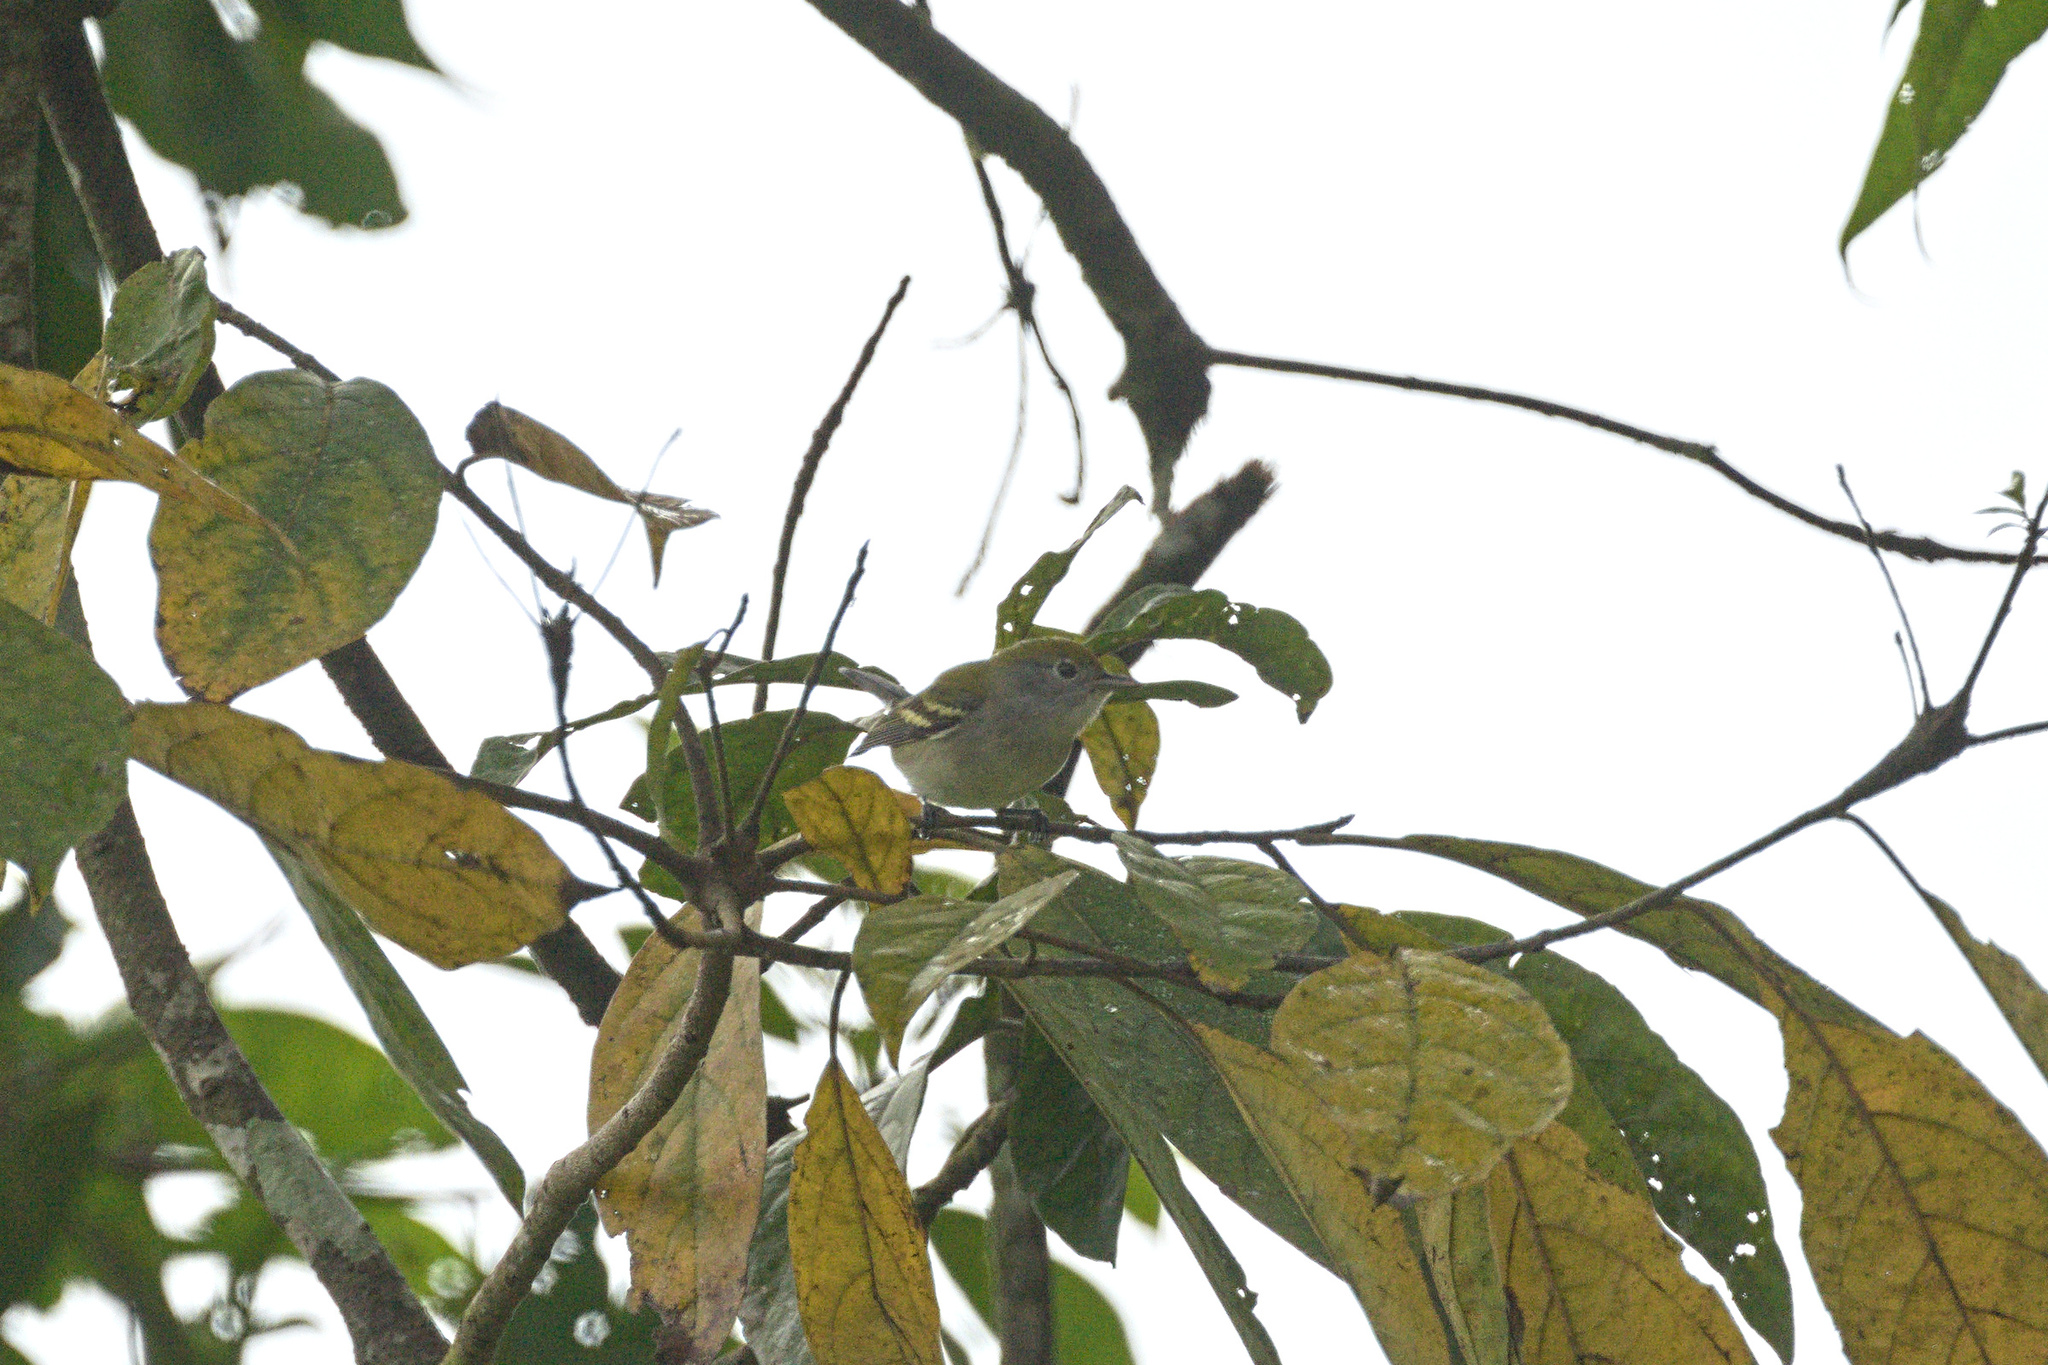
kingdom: Animalia
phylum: Chordata
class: Aves
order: Passeriformes
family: Parulidae
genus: Setophaga
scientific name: Setophaga pensylvanica
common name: Chestnut-sided warbler
